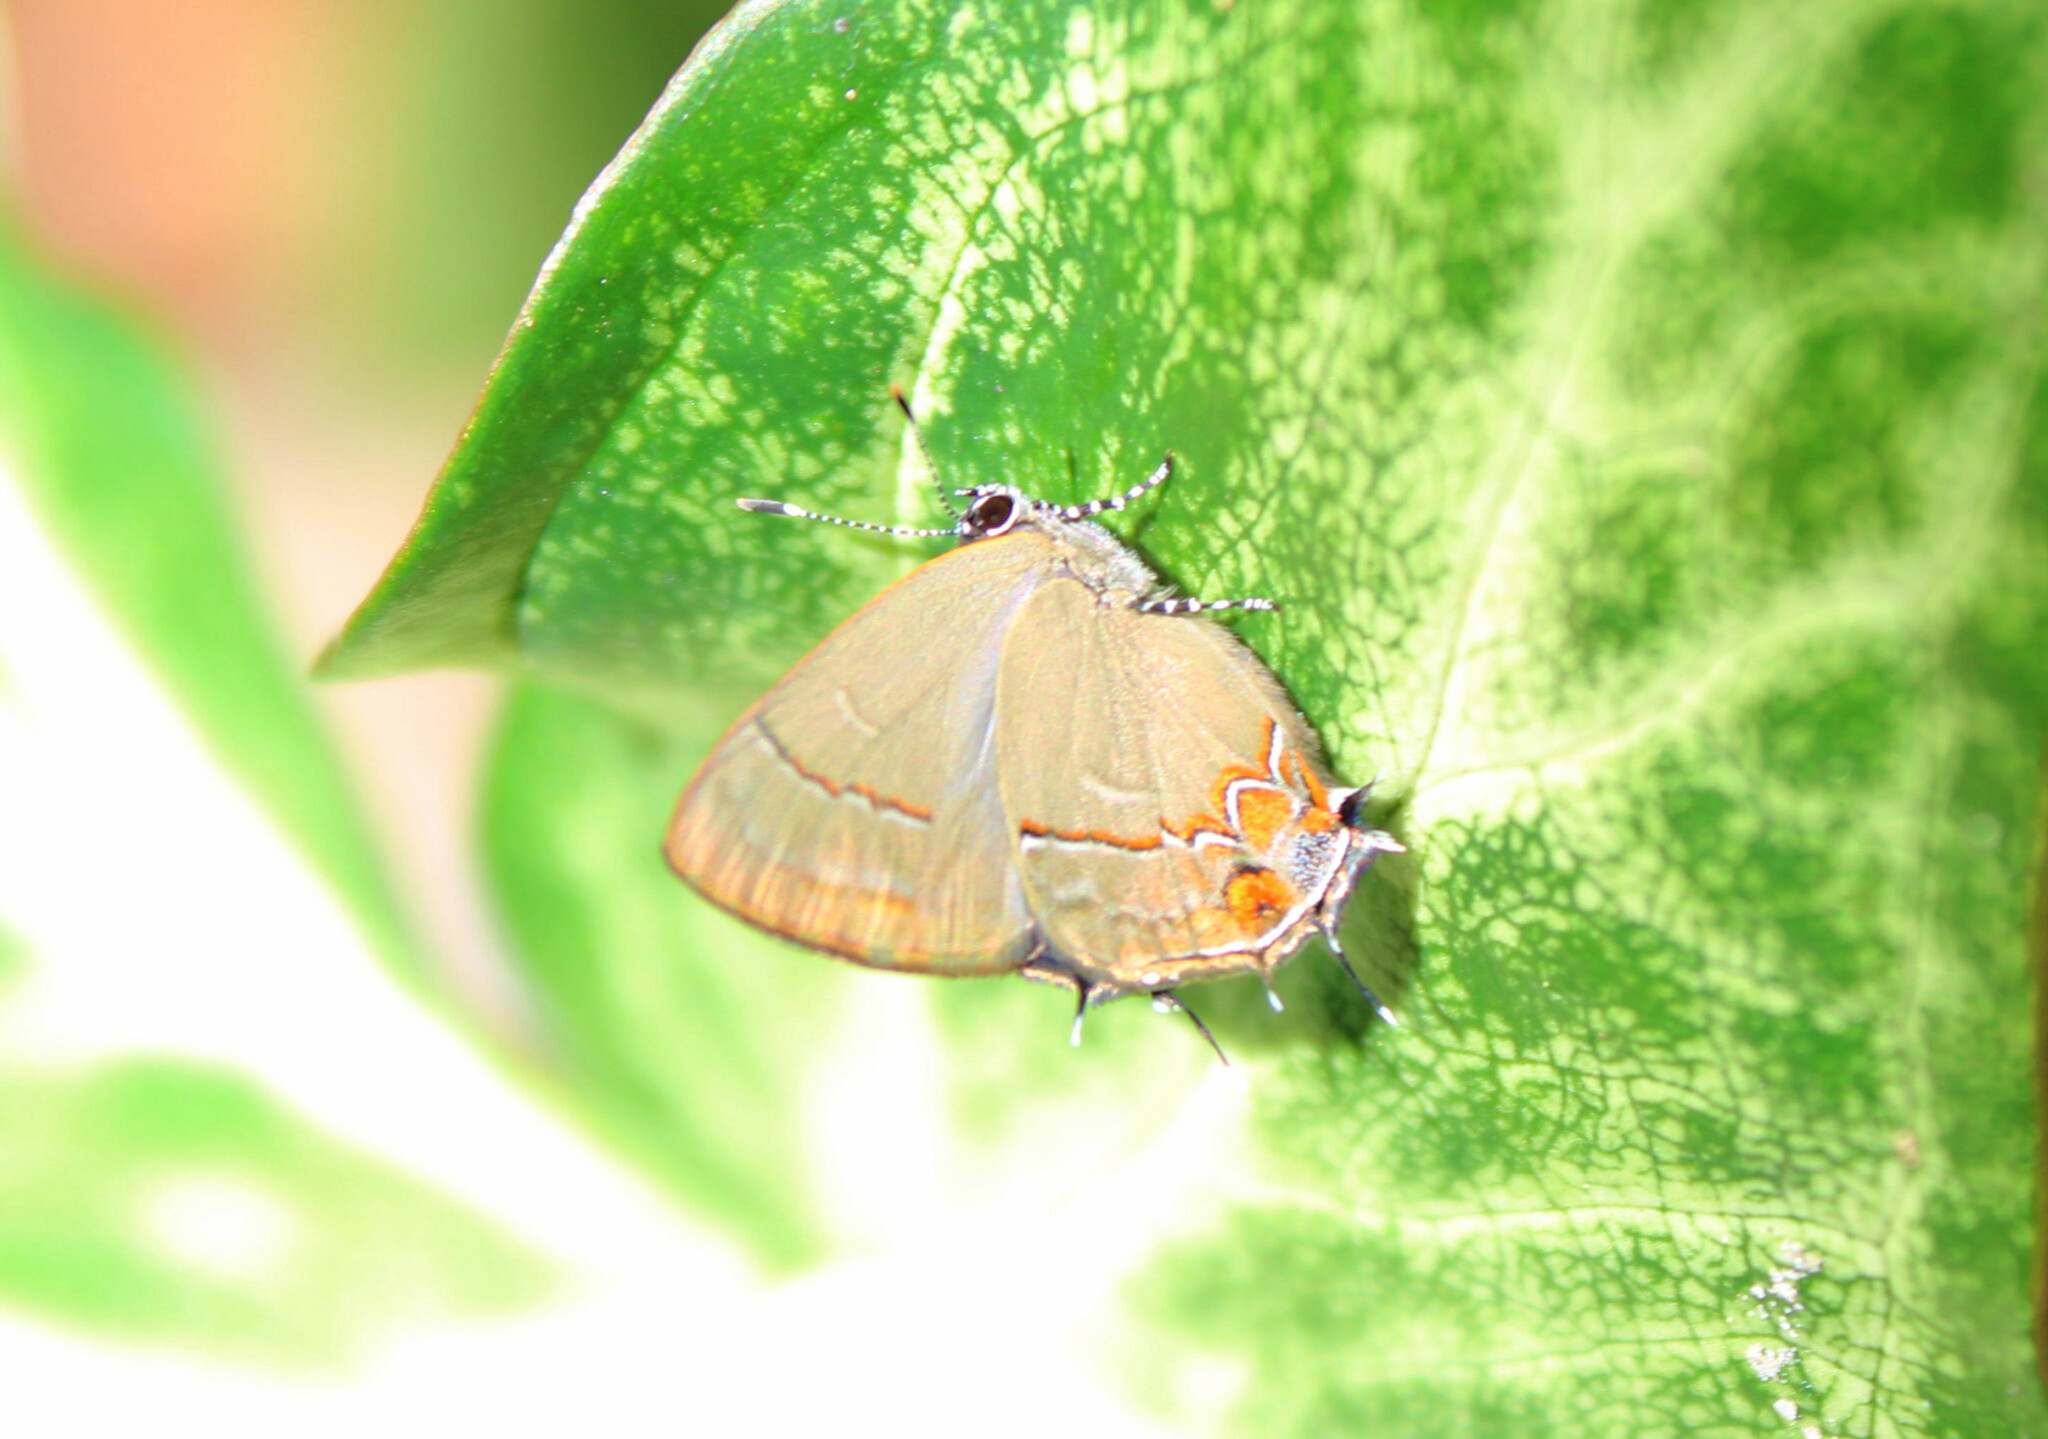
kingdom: Animalia
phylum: Arthropoda
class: Insecta
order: Lepidoptera
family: Lycaenidae
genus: Calycopis
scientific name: Calycopis bellera
